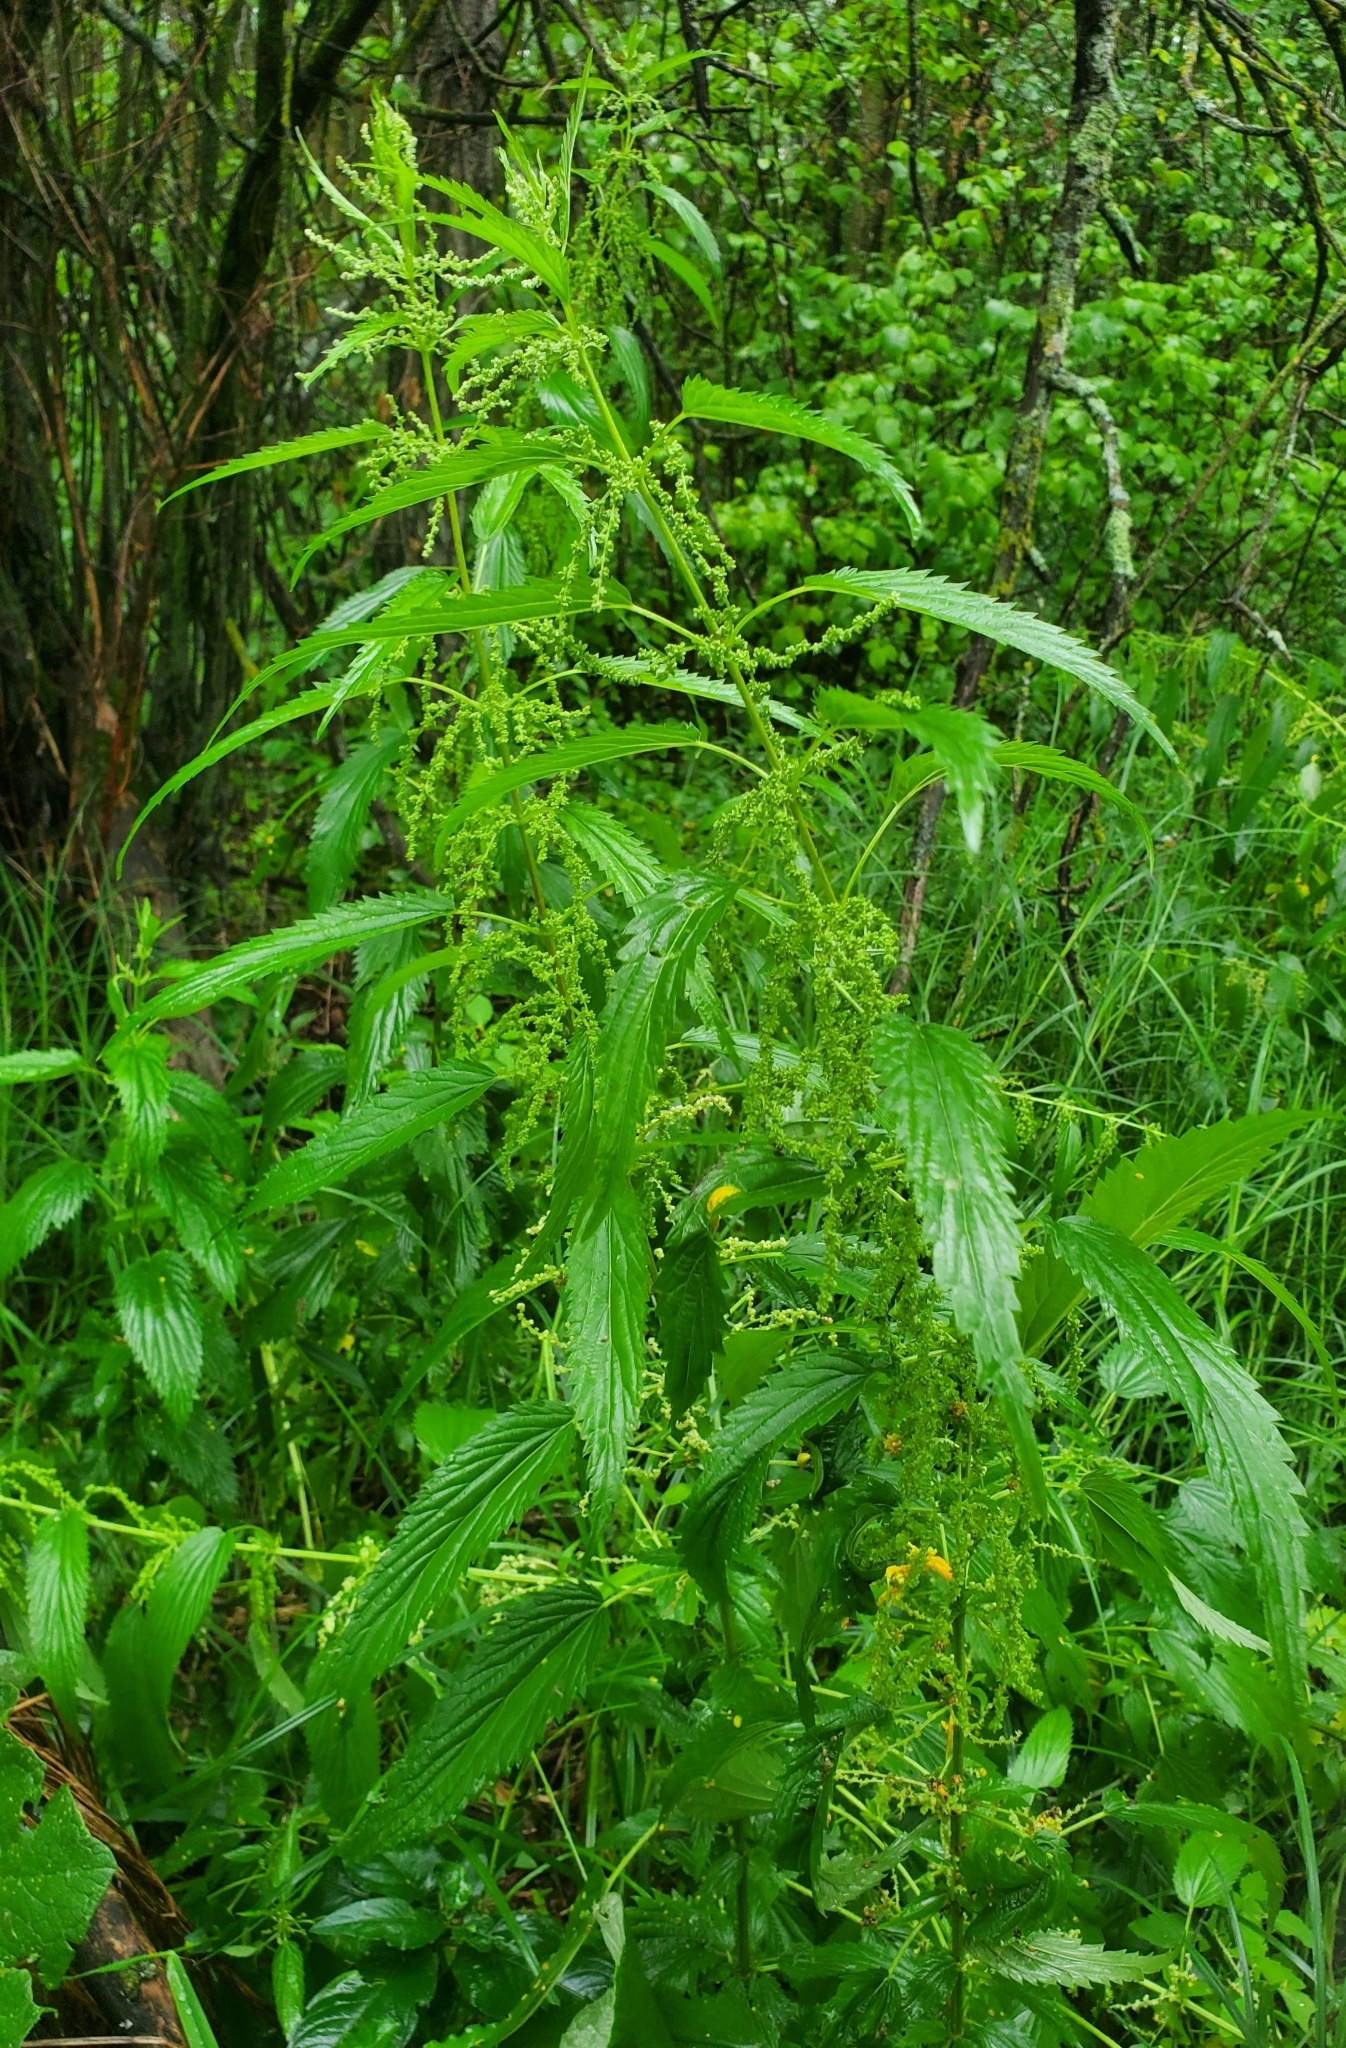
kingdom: Plantae
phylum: Tracheophyta
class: Magnoliopsida
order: Rosales
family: Urticaceae
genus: Urtica
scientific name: Urtica gracilis
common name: Slender stinging nettle
